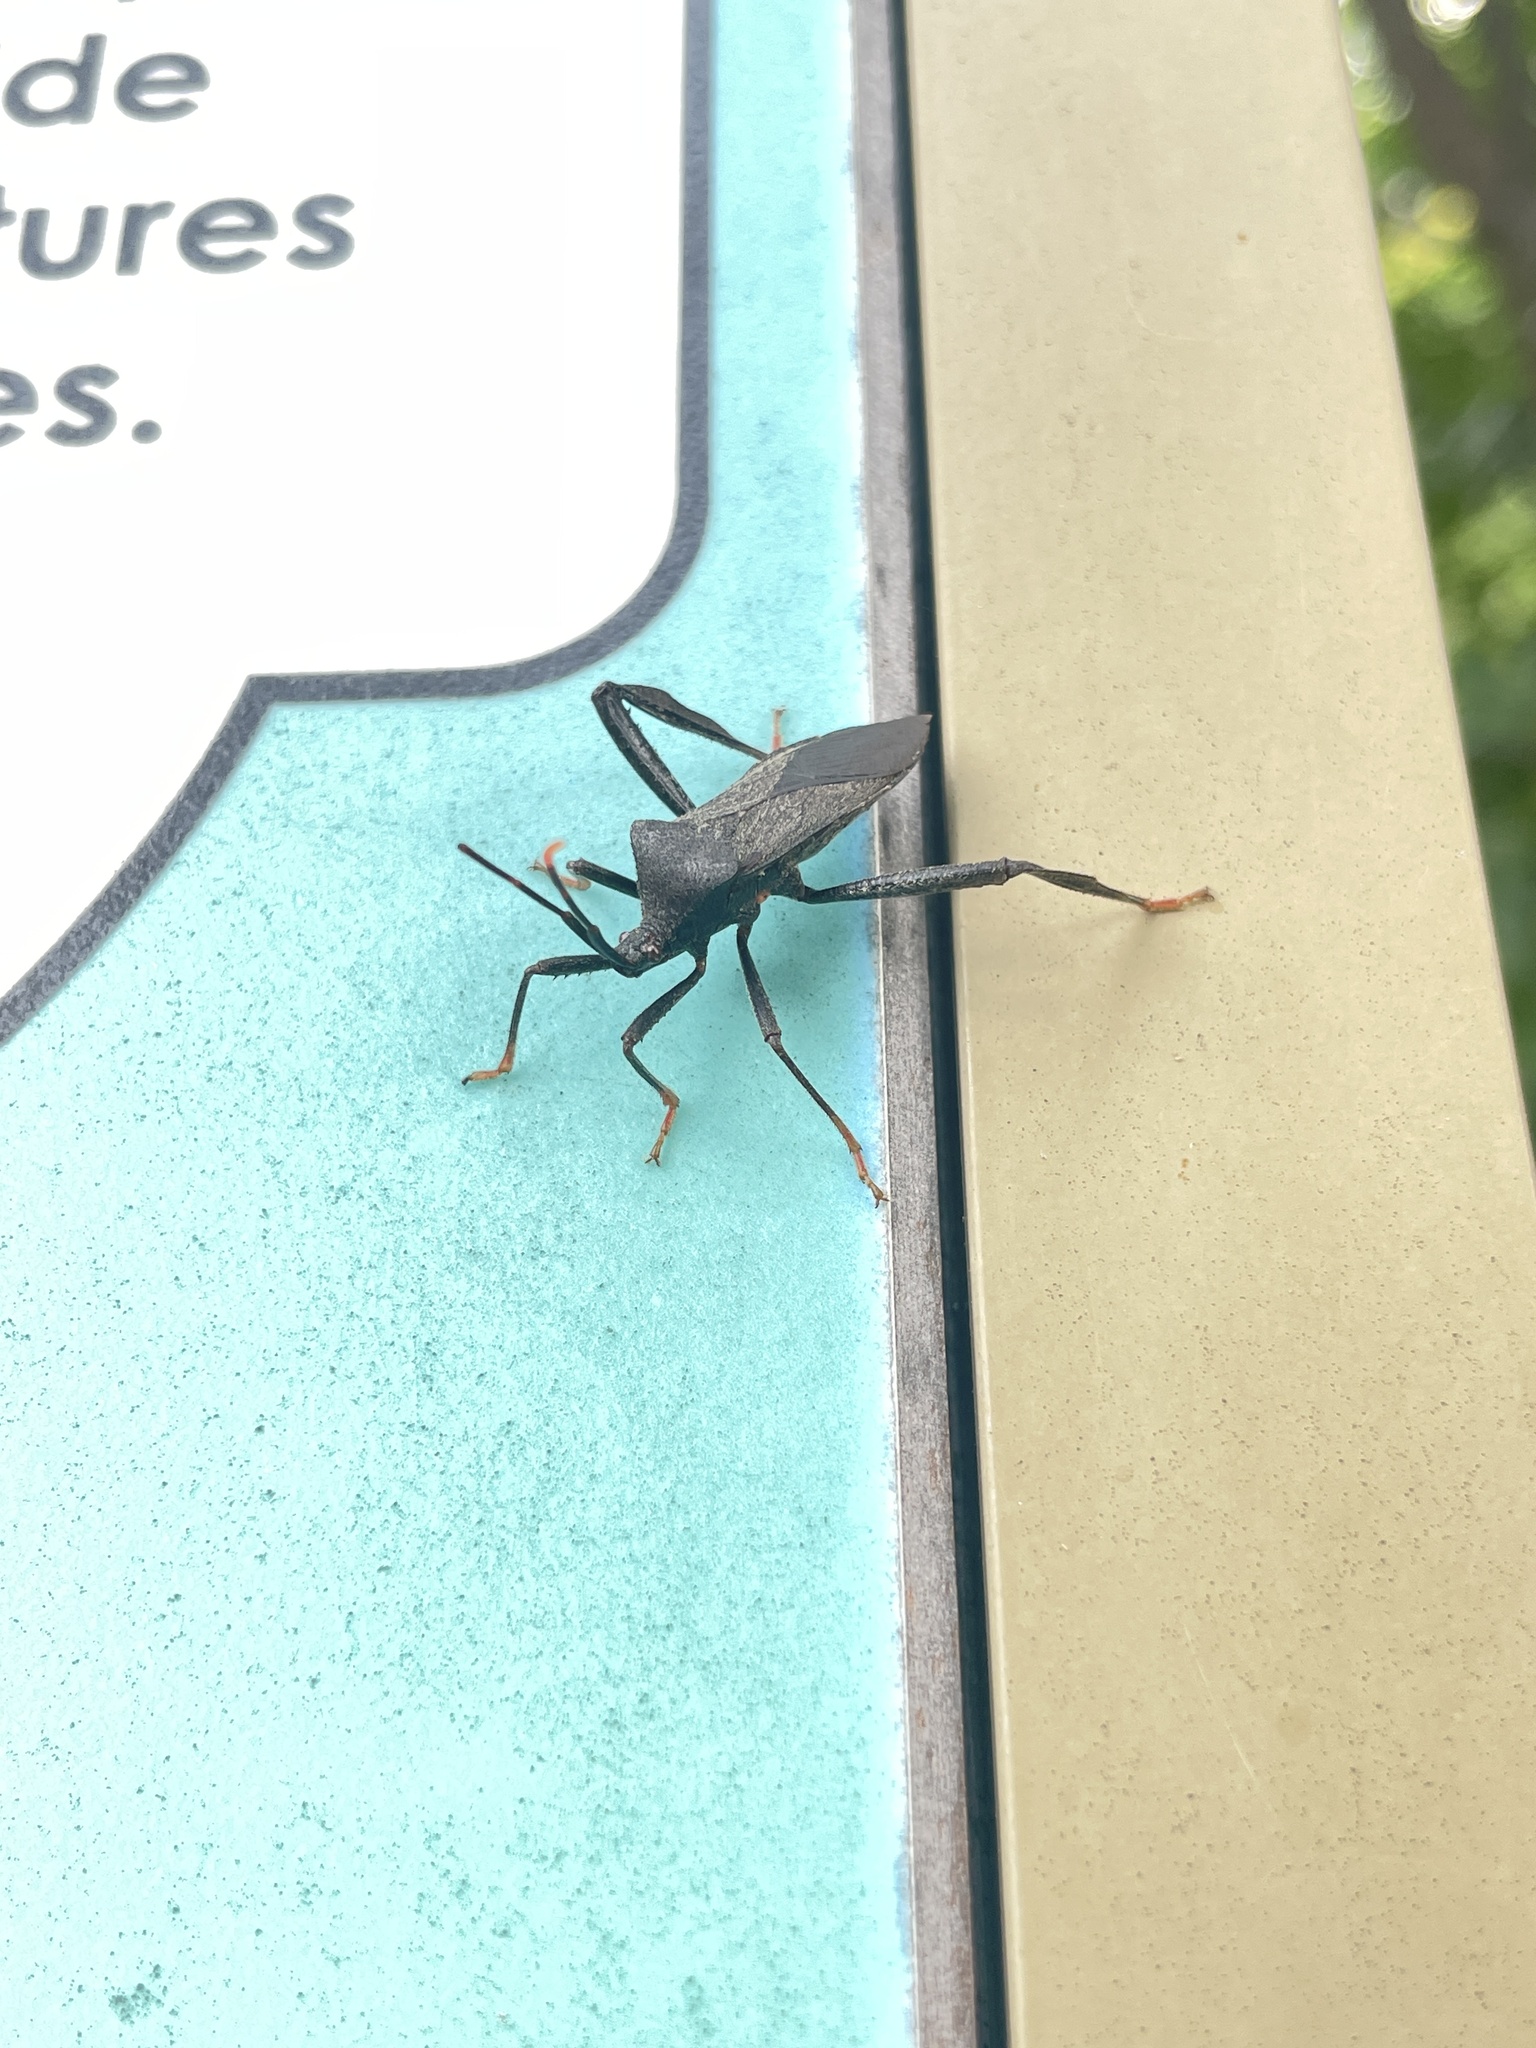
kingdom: Animalia
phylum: Arthropoda
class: Insecta
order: Hemiptera
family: Coreidae
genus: Acanthocephala
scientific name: Acanthocephala terminalis
